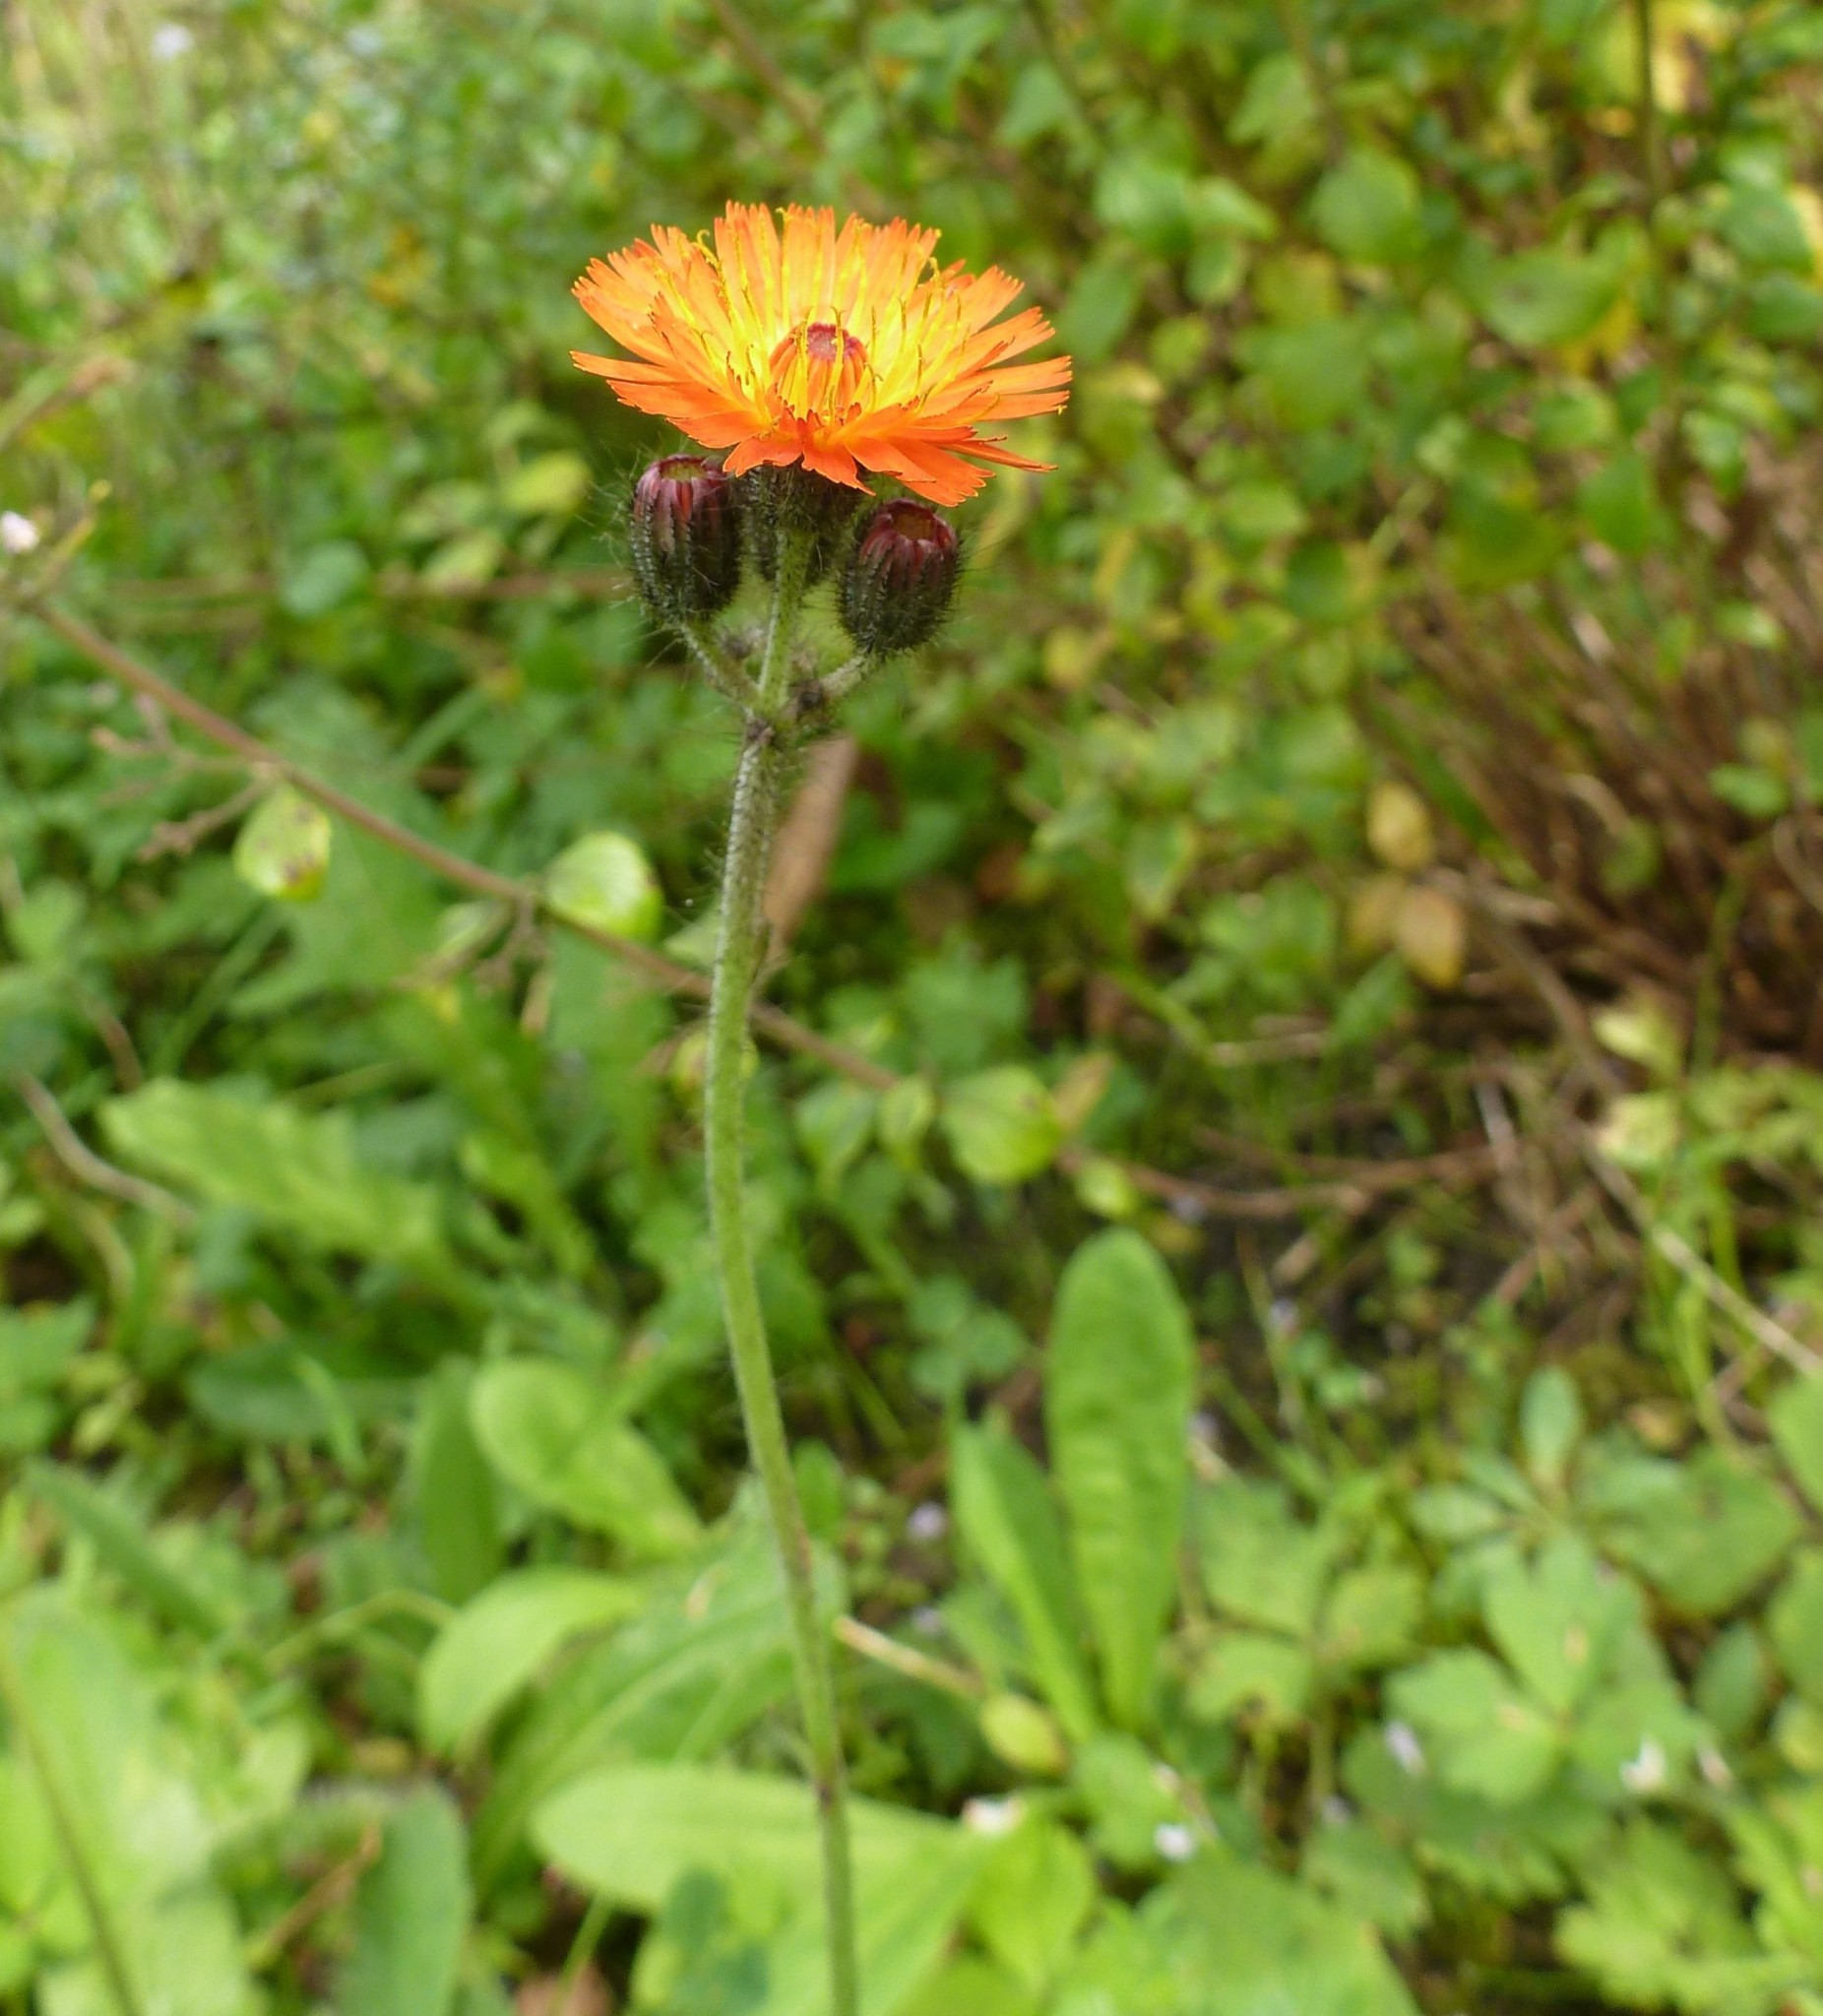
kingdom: Plantae
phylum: Tracheophyta
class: Magnoliopsida
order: Asterales
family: Asteraceae
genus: Pilosella
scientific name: Pilosella aurantiaca
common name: Fox-and-cubs
